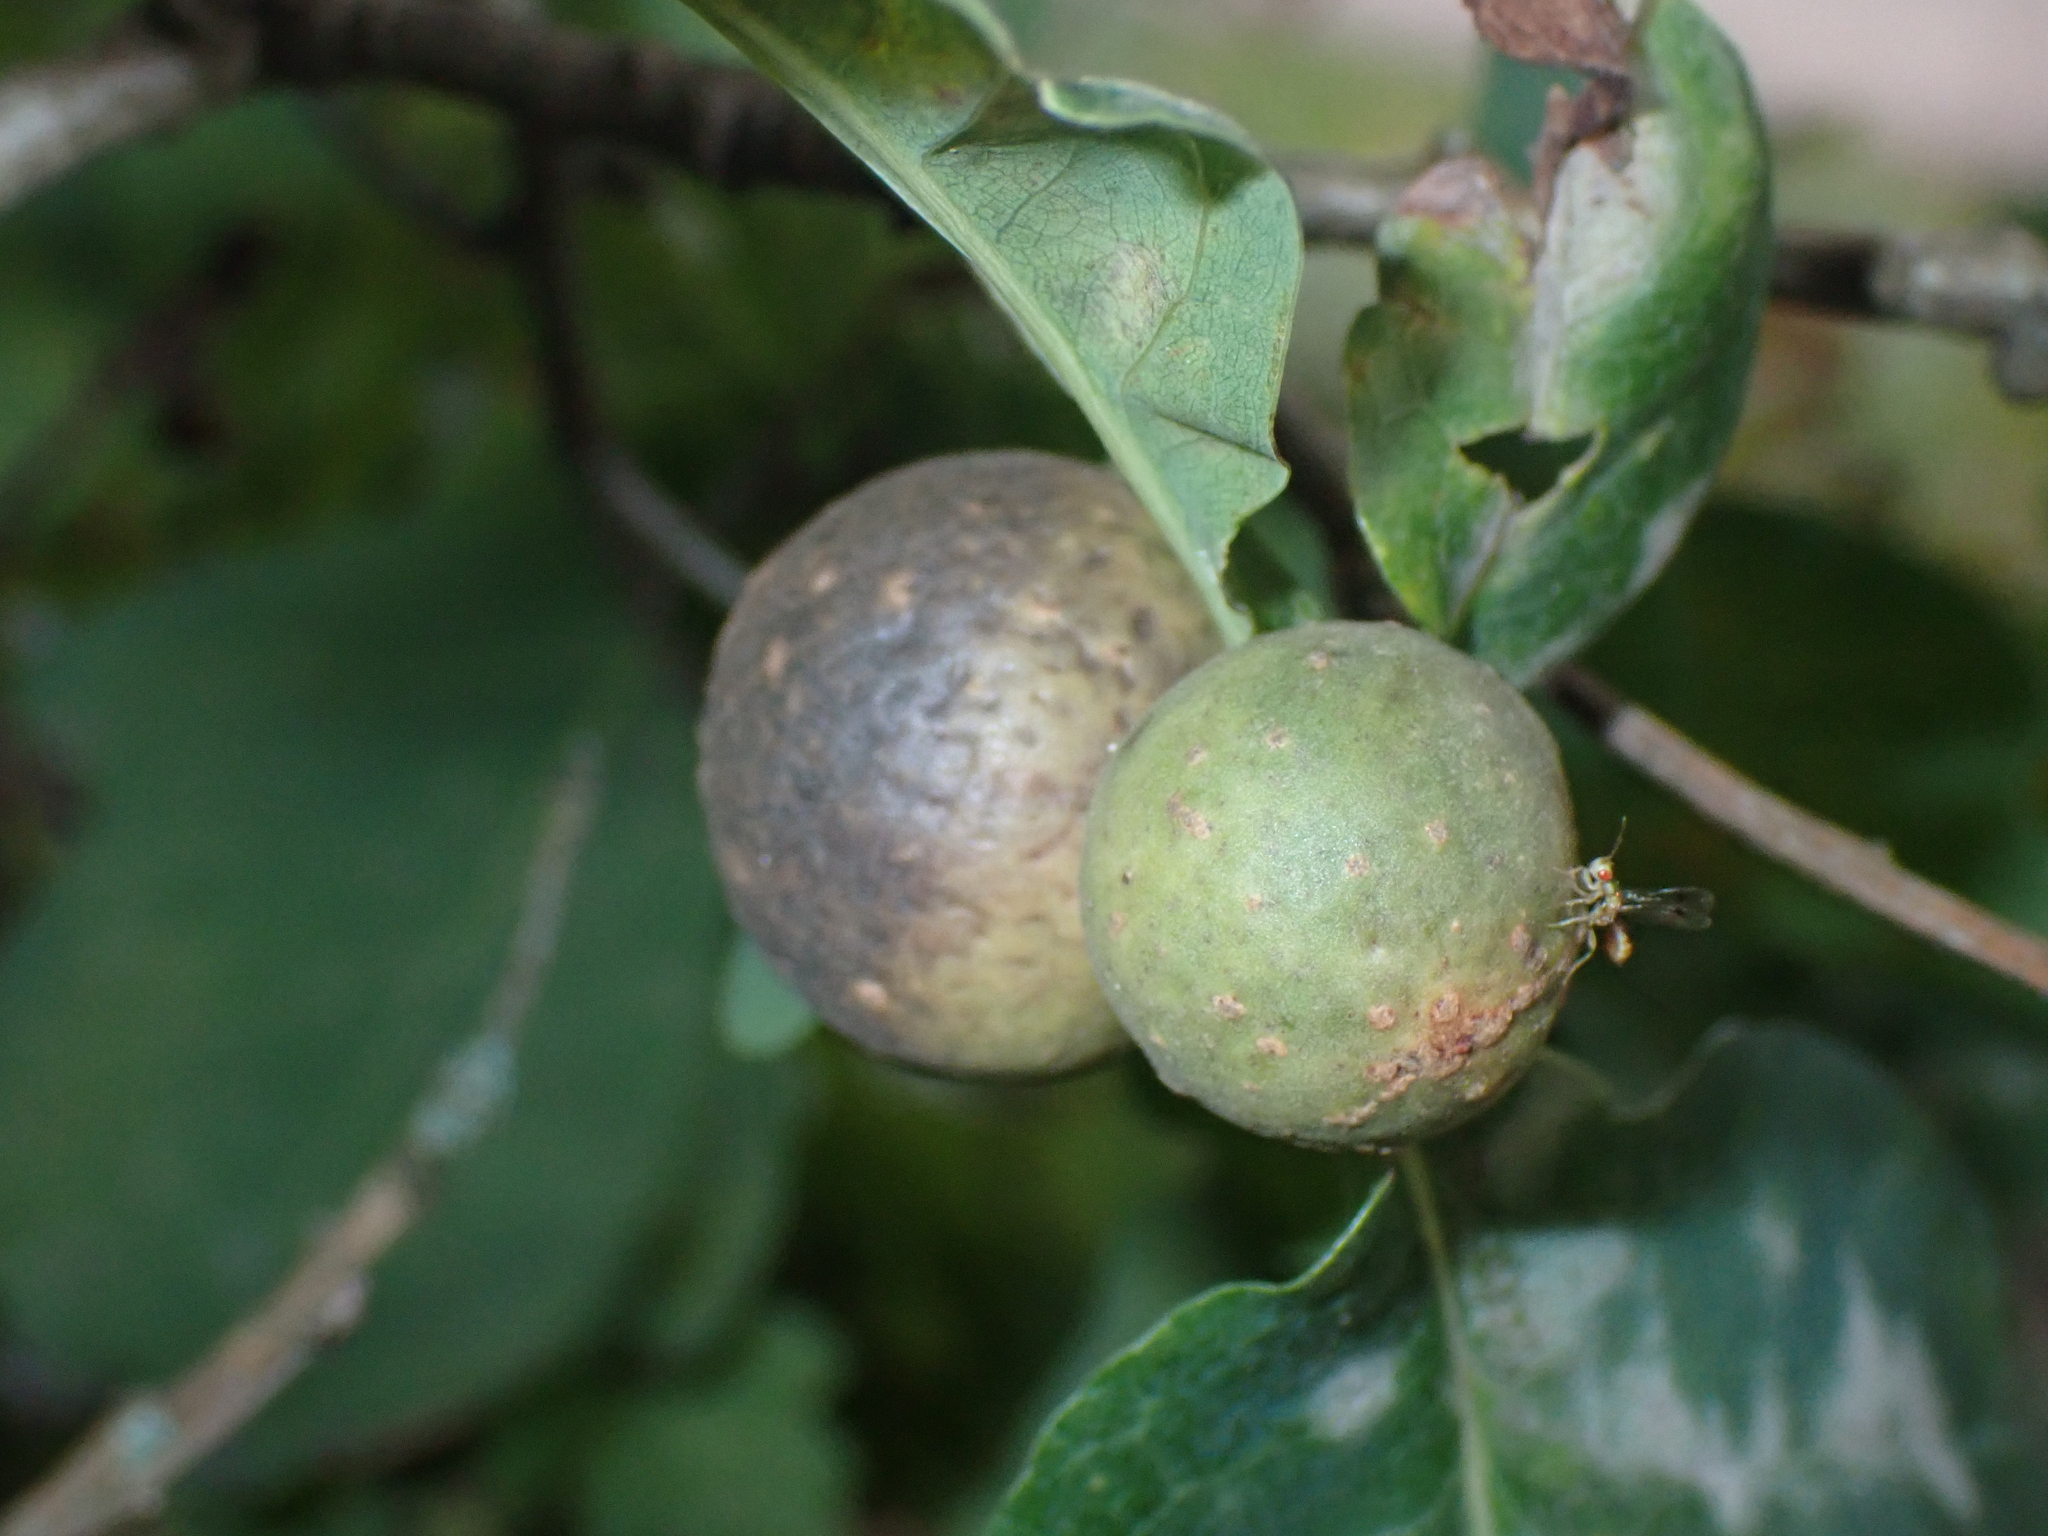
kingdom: Animalia
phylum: Arthropoda
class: Insecta
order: Hymenoptera
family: Cynipidae
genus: Andricus
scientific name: Andricus kollari
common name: Marble gall
